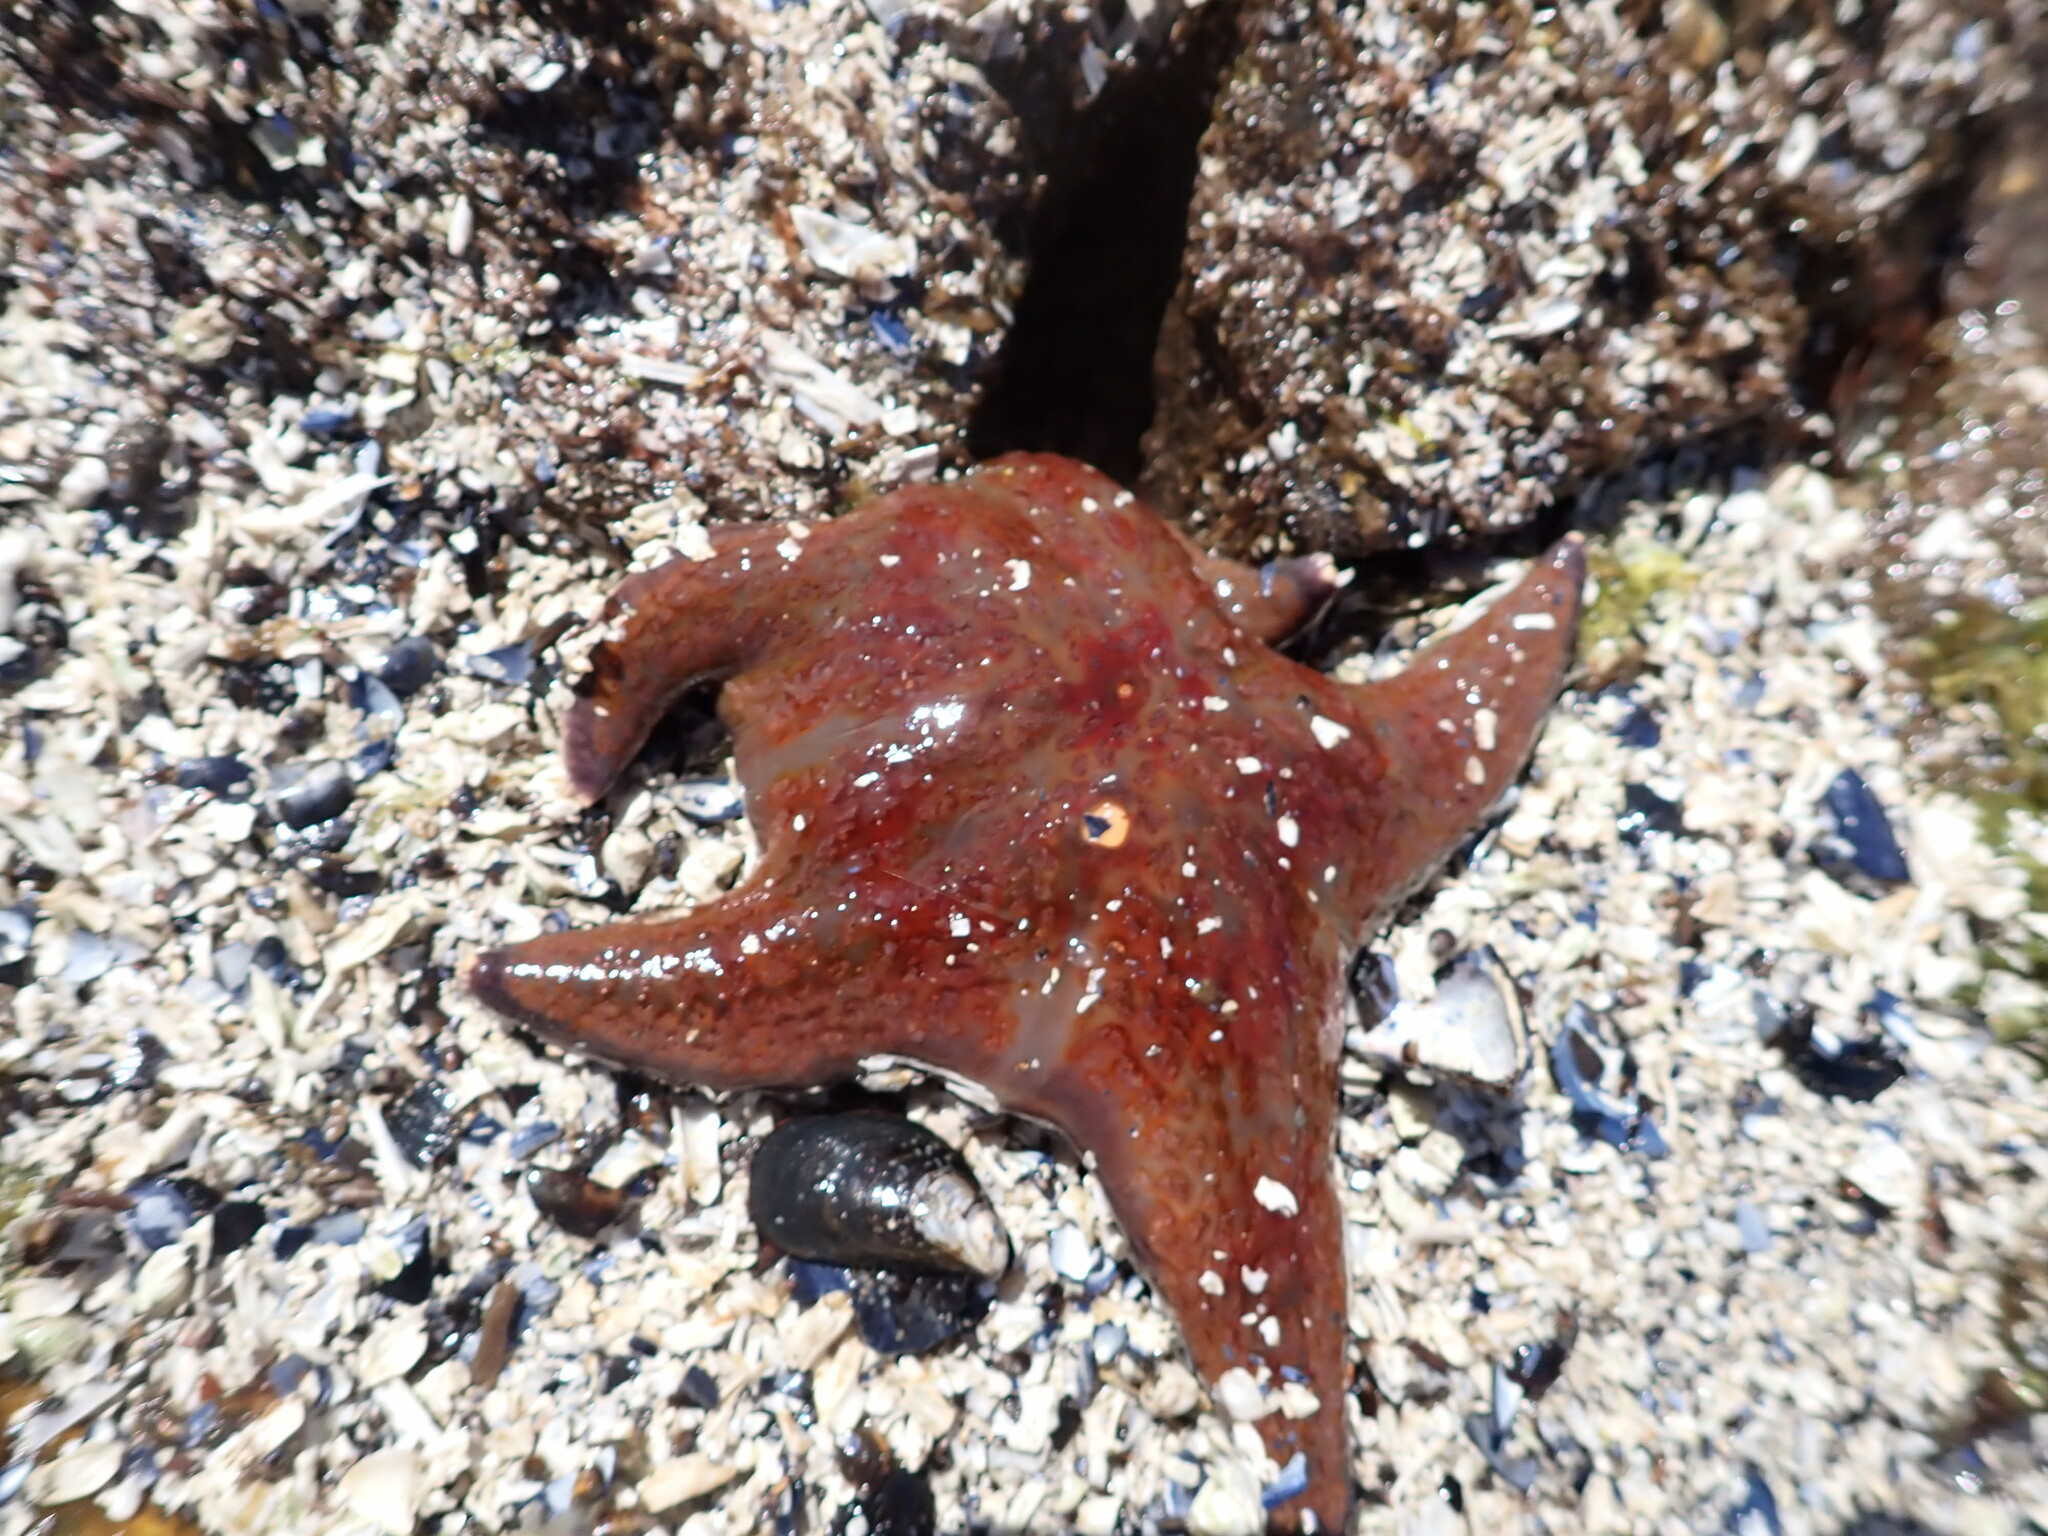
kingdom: Animalia
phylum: Echinodermata
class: Asteroidea
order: Valvatida
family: Asteropseidae
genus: Dermasterias
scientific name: Dermasterias imbricata
